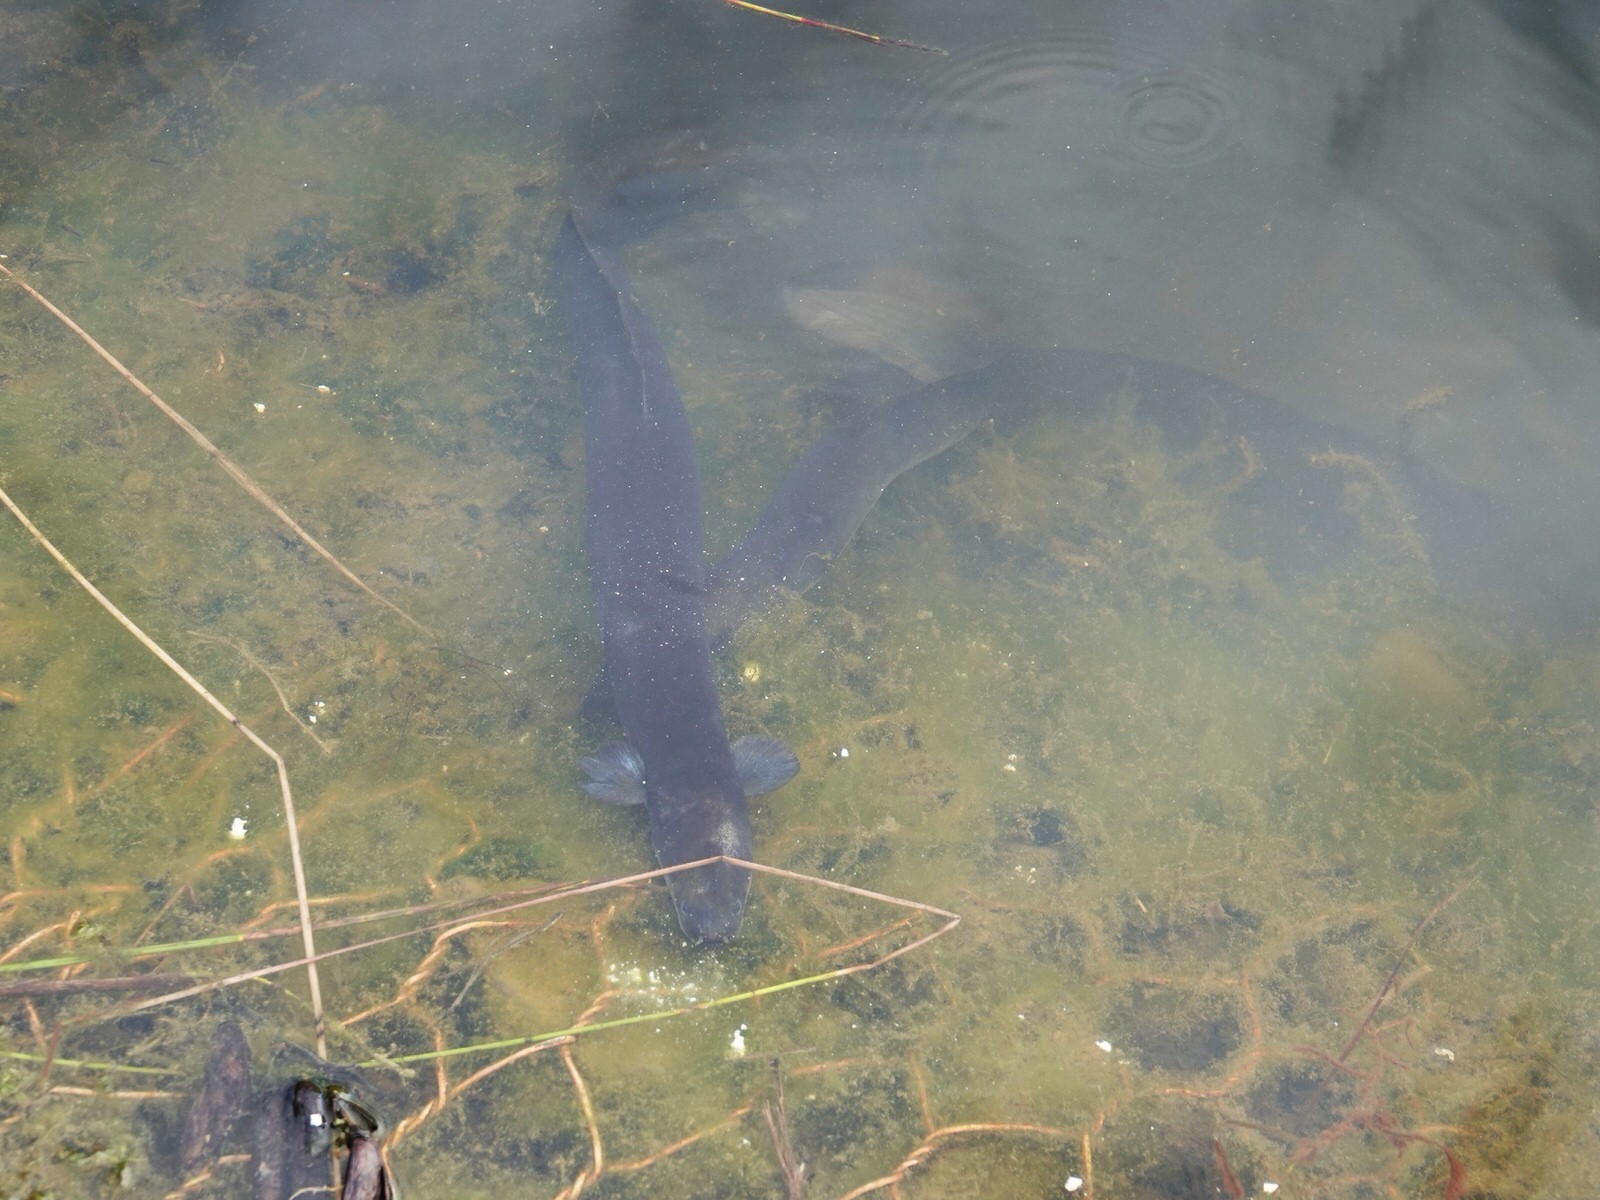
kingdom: Animalia
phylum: Chordata
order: Anguilliformes
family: Anguillidae
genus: Anguilla
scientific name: Anguilla dieffenbachii
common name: New zealand longfin eel
